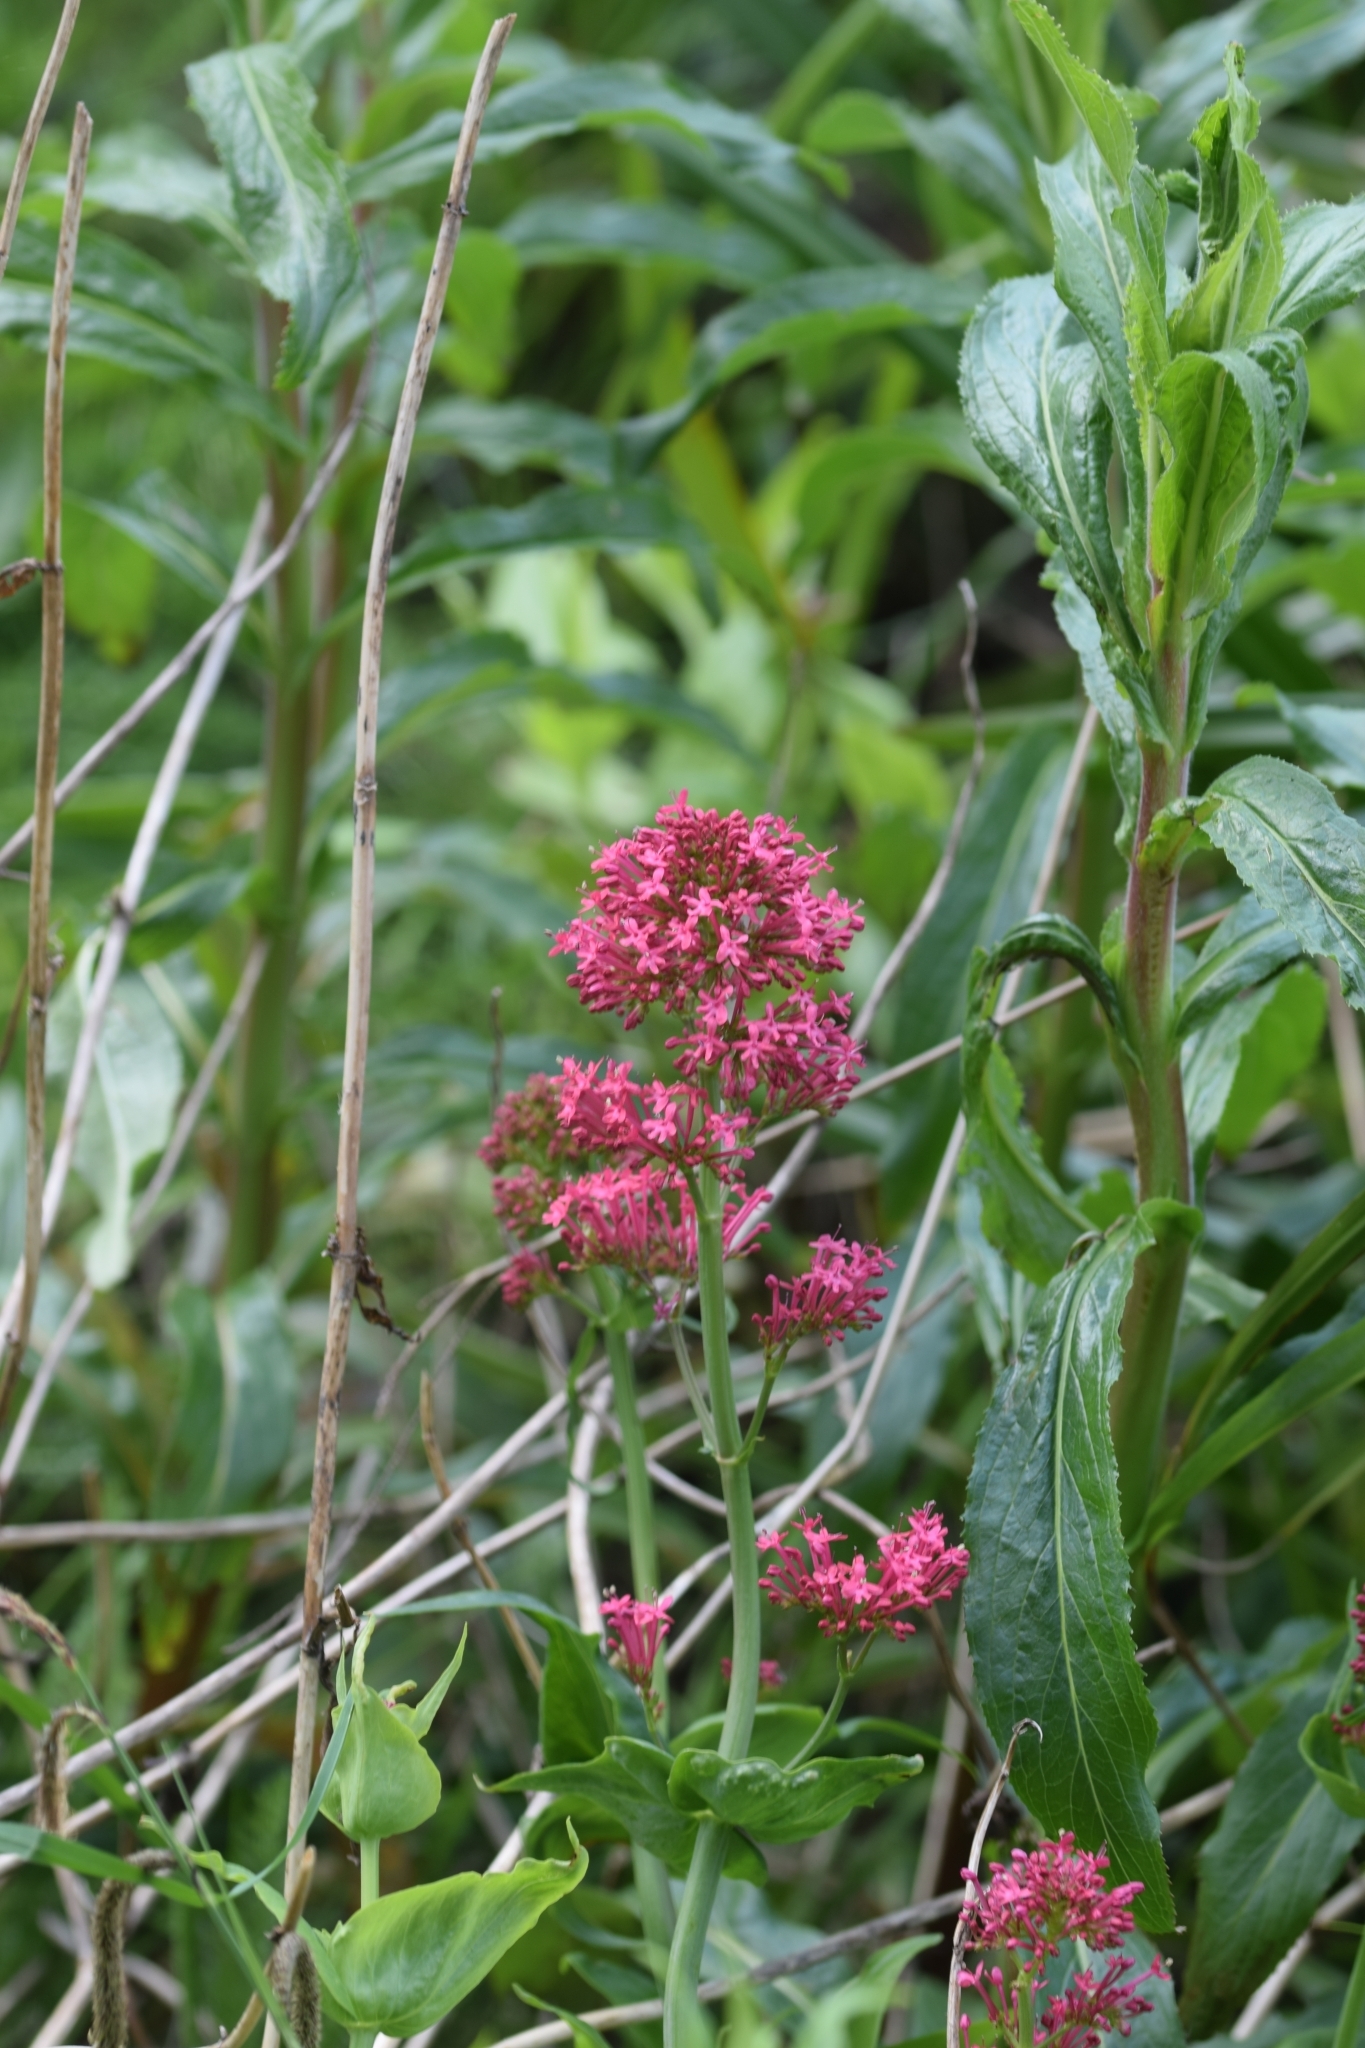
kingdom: Plantae
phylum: Tracheophyta
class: Magnoliopsida
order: Dipsacales
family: Caprifoliaceae
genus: Centranthus
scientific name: Centranthus ruber
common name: Red valerian
